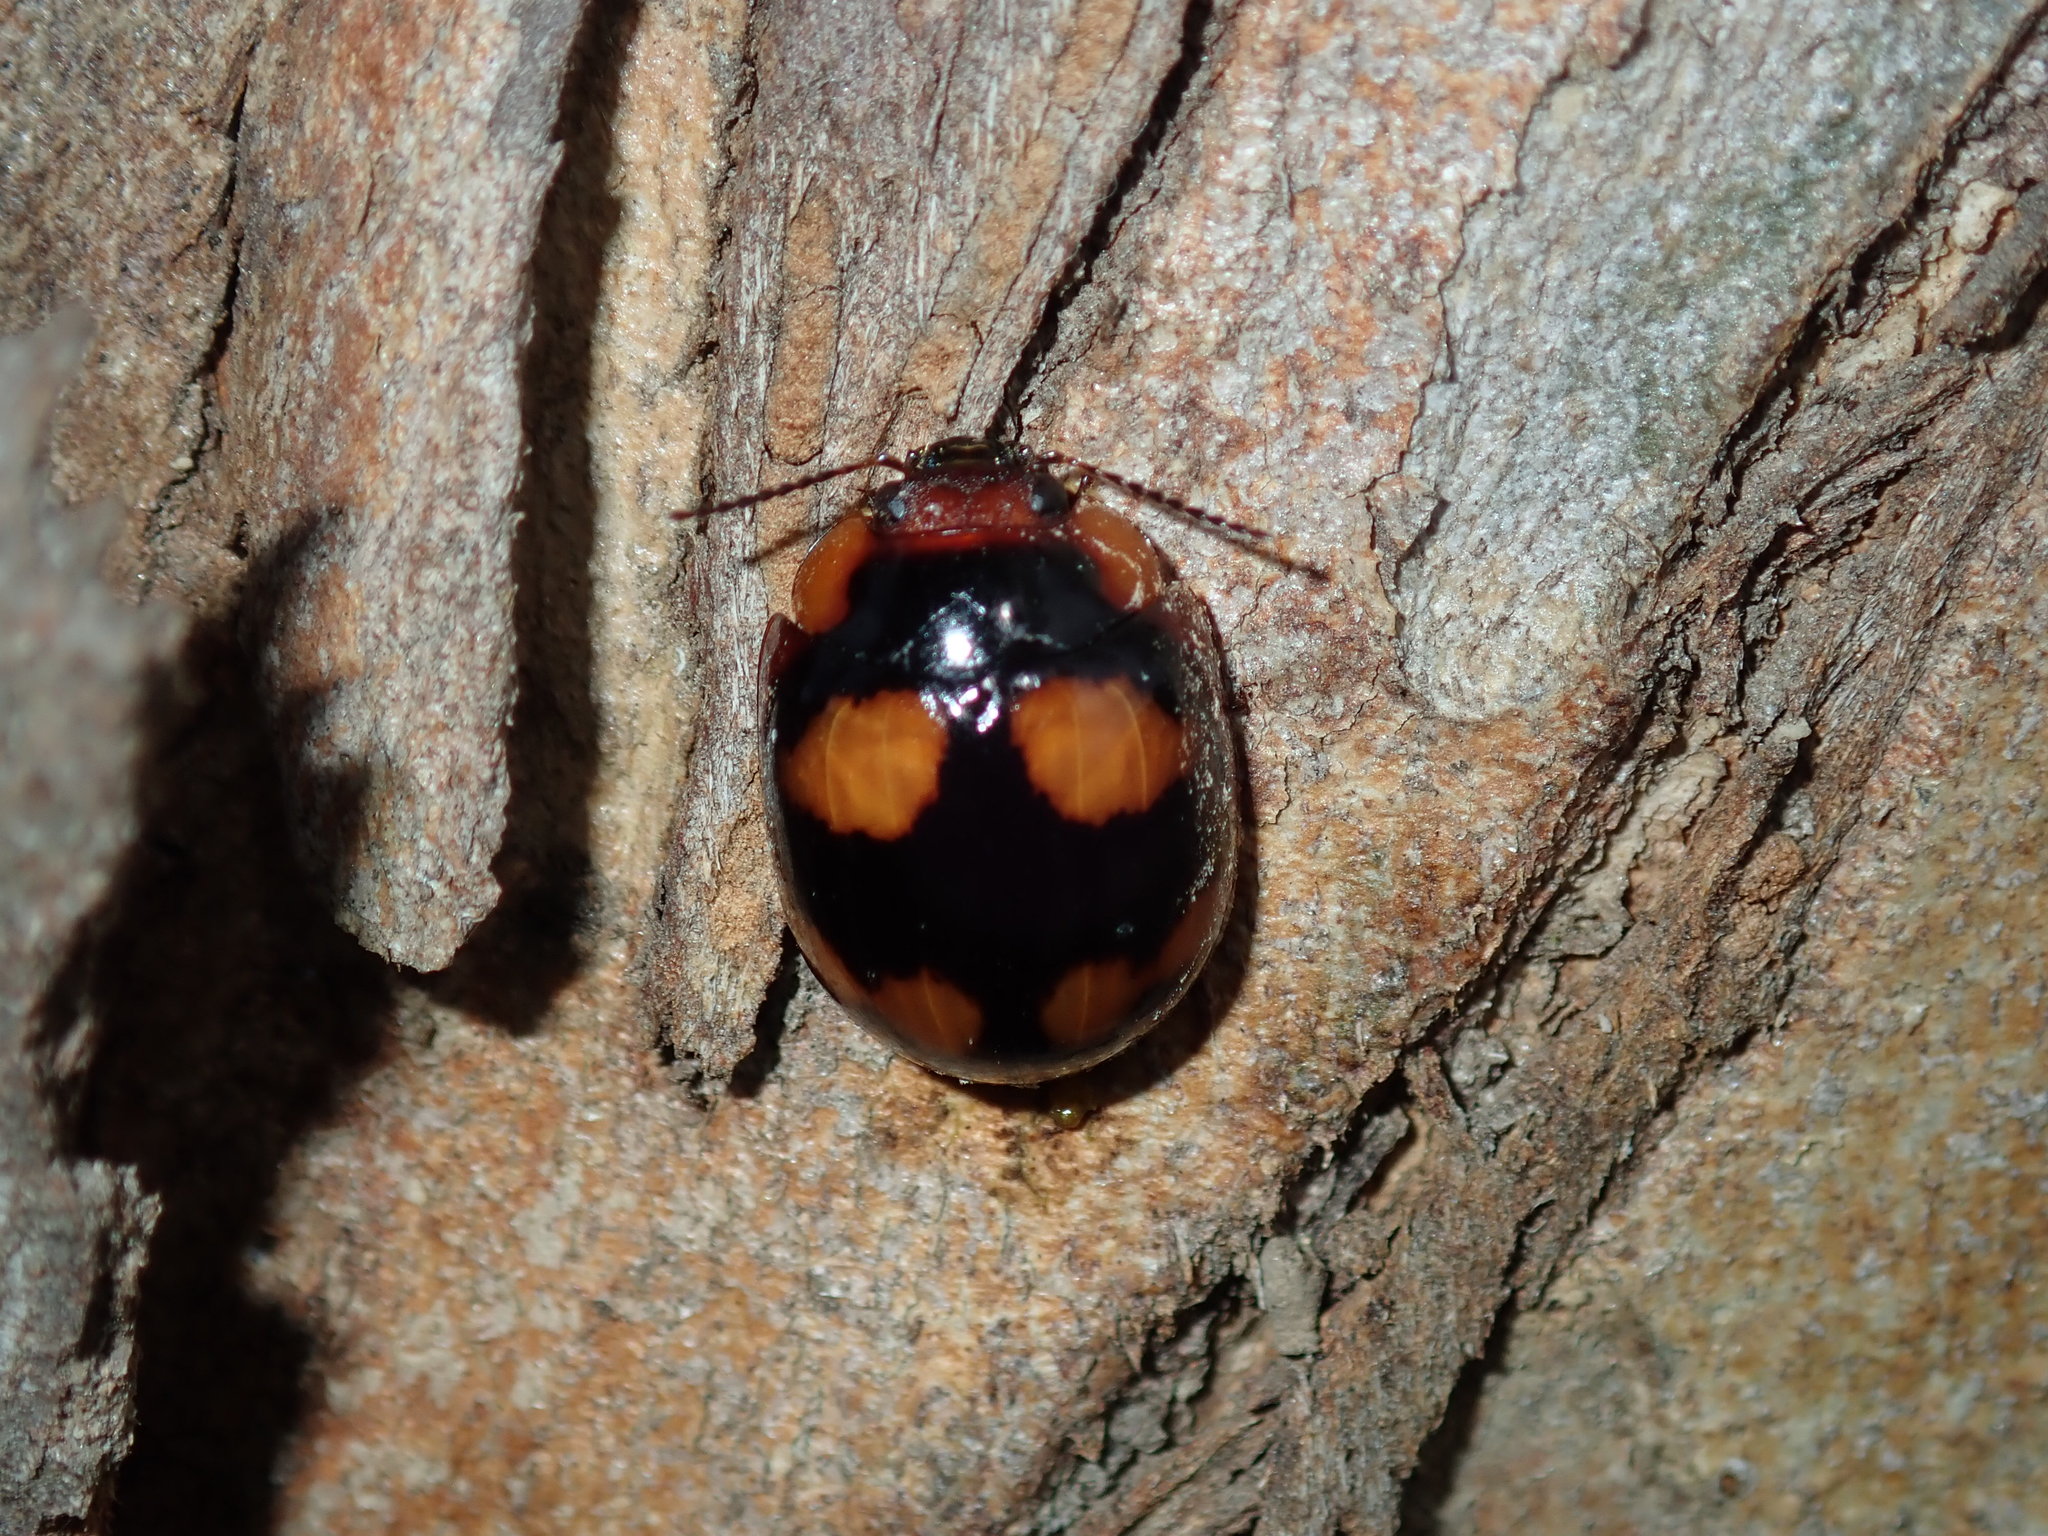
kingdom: Animalia
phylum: Arthropoda
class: Insecta
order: Coleoptera
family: Chrysomelidae
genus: Paropsisterna
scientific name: Paropsisterna beata
